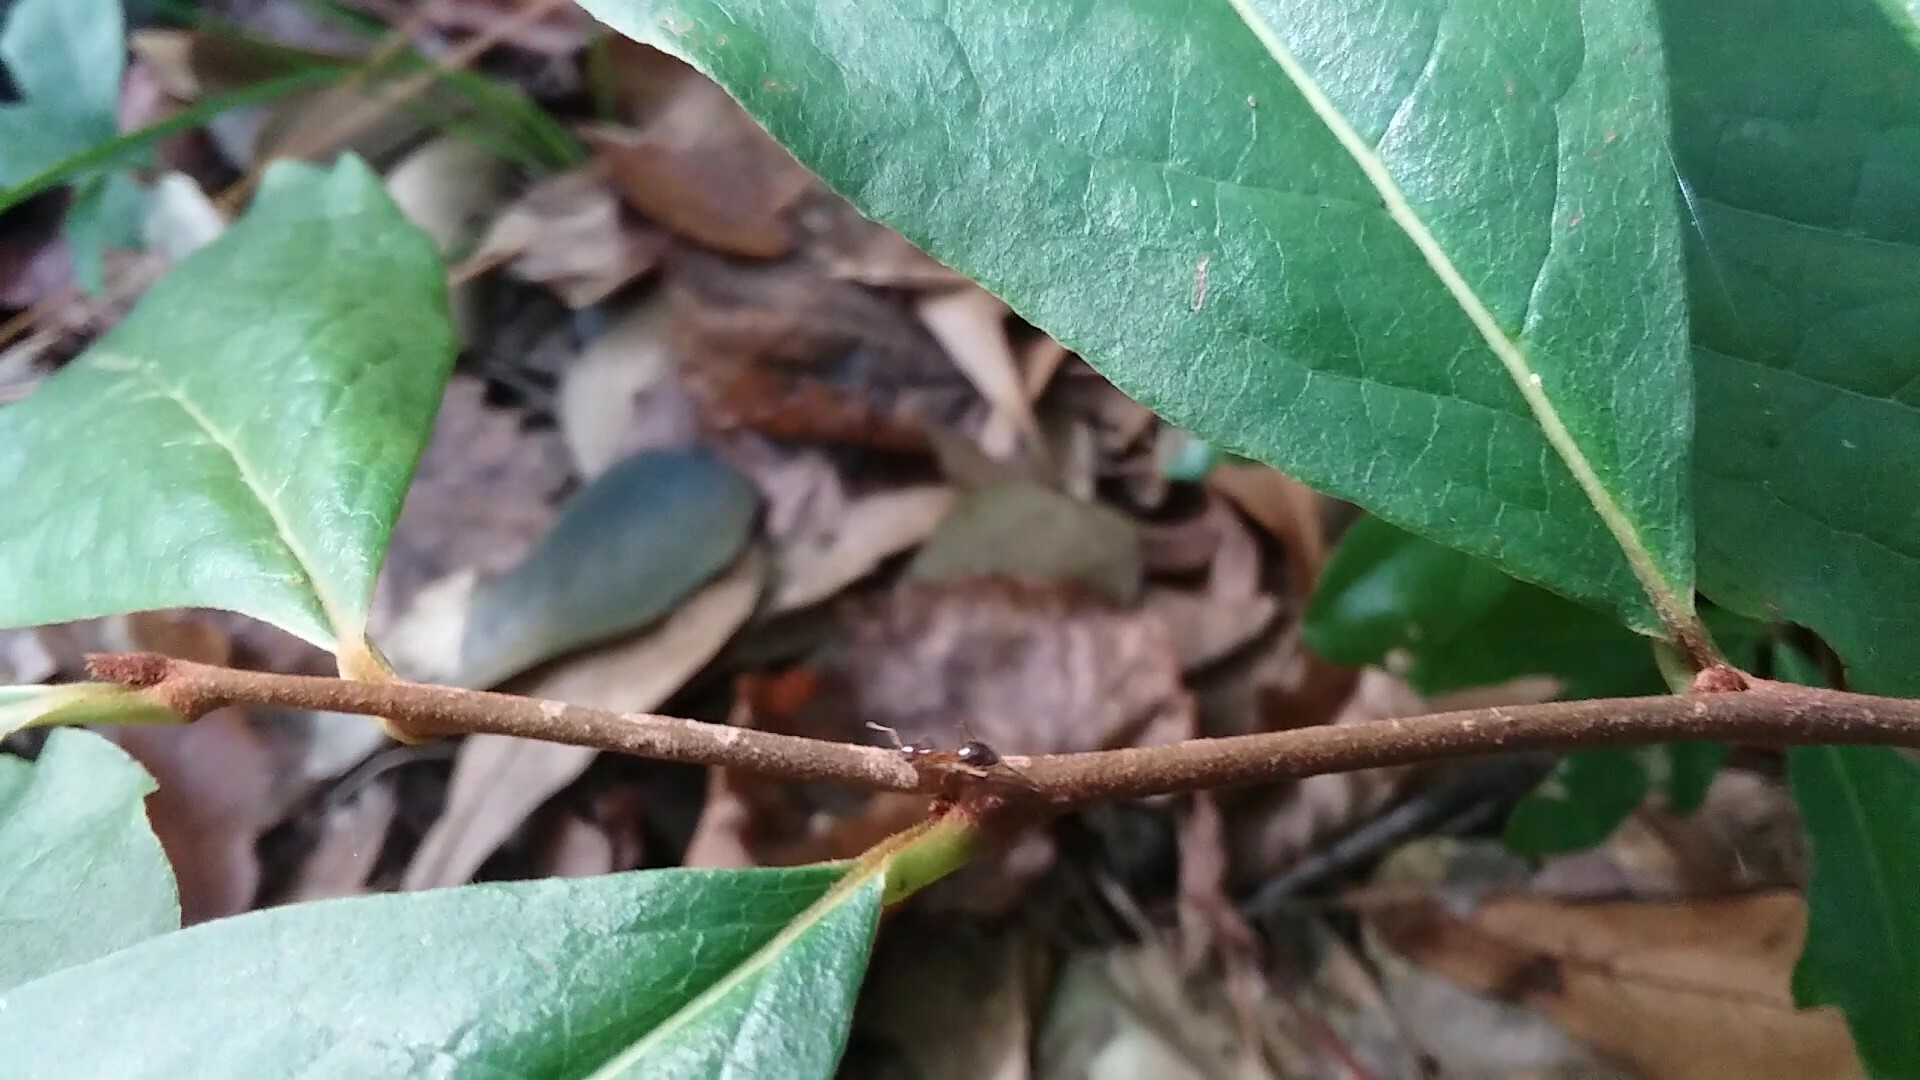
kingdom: Animalia
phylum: Arthropoda
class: Insecta
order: Hymenoptera
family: Formicidae
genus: Prenolepis
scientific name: Prenolepis imparis
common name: Small honey ant
